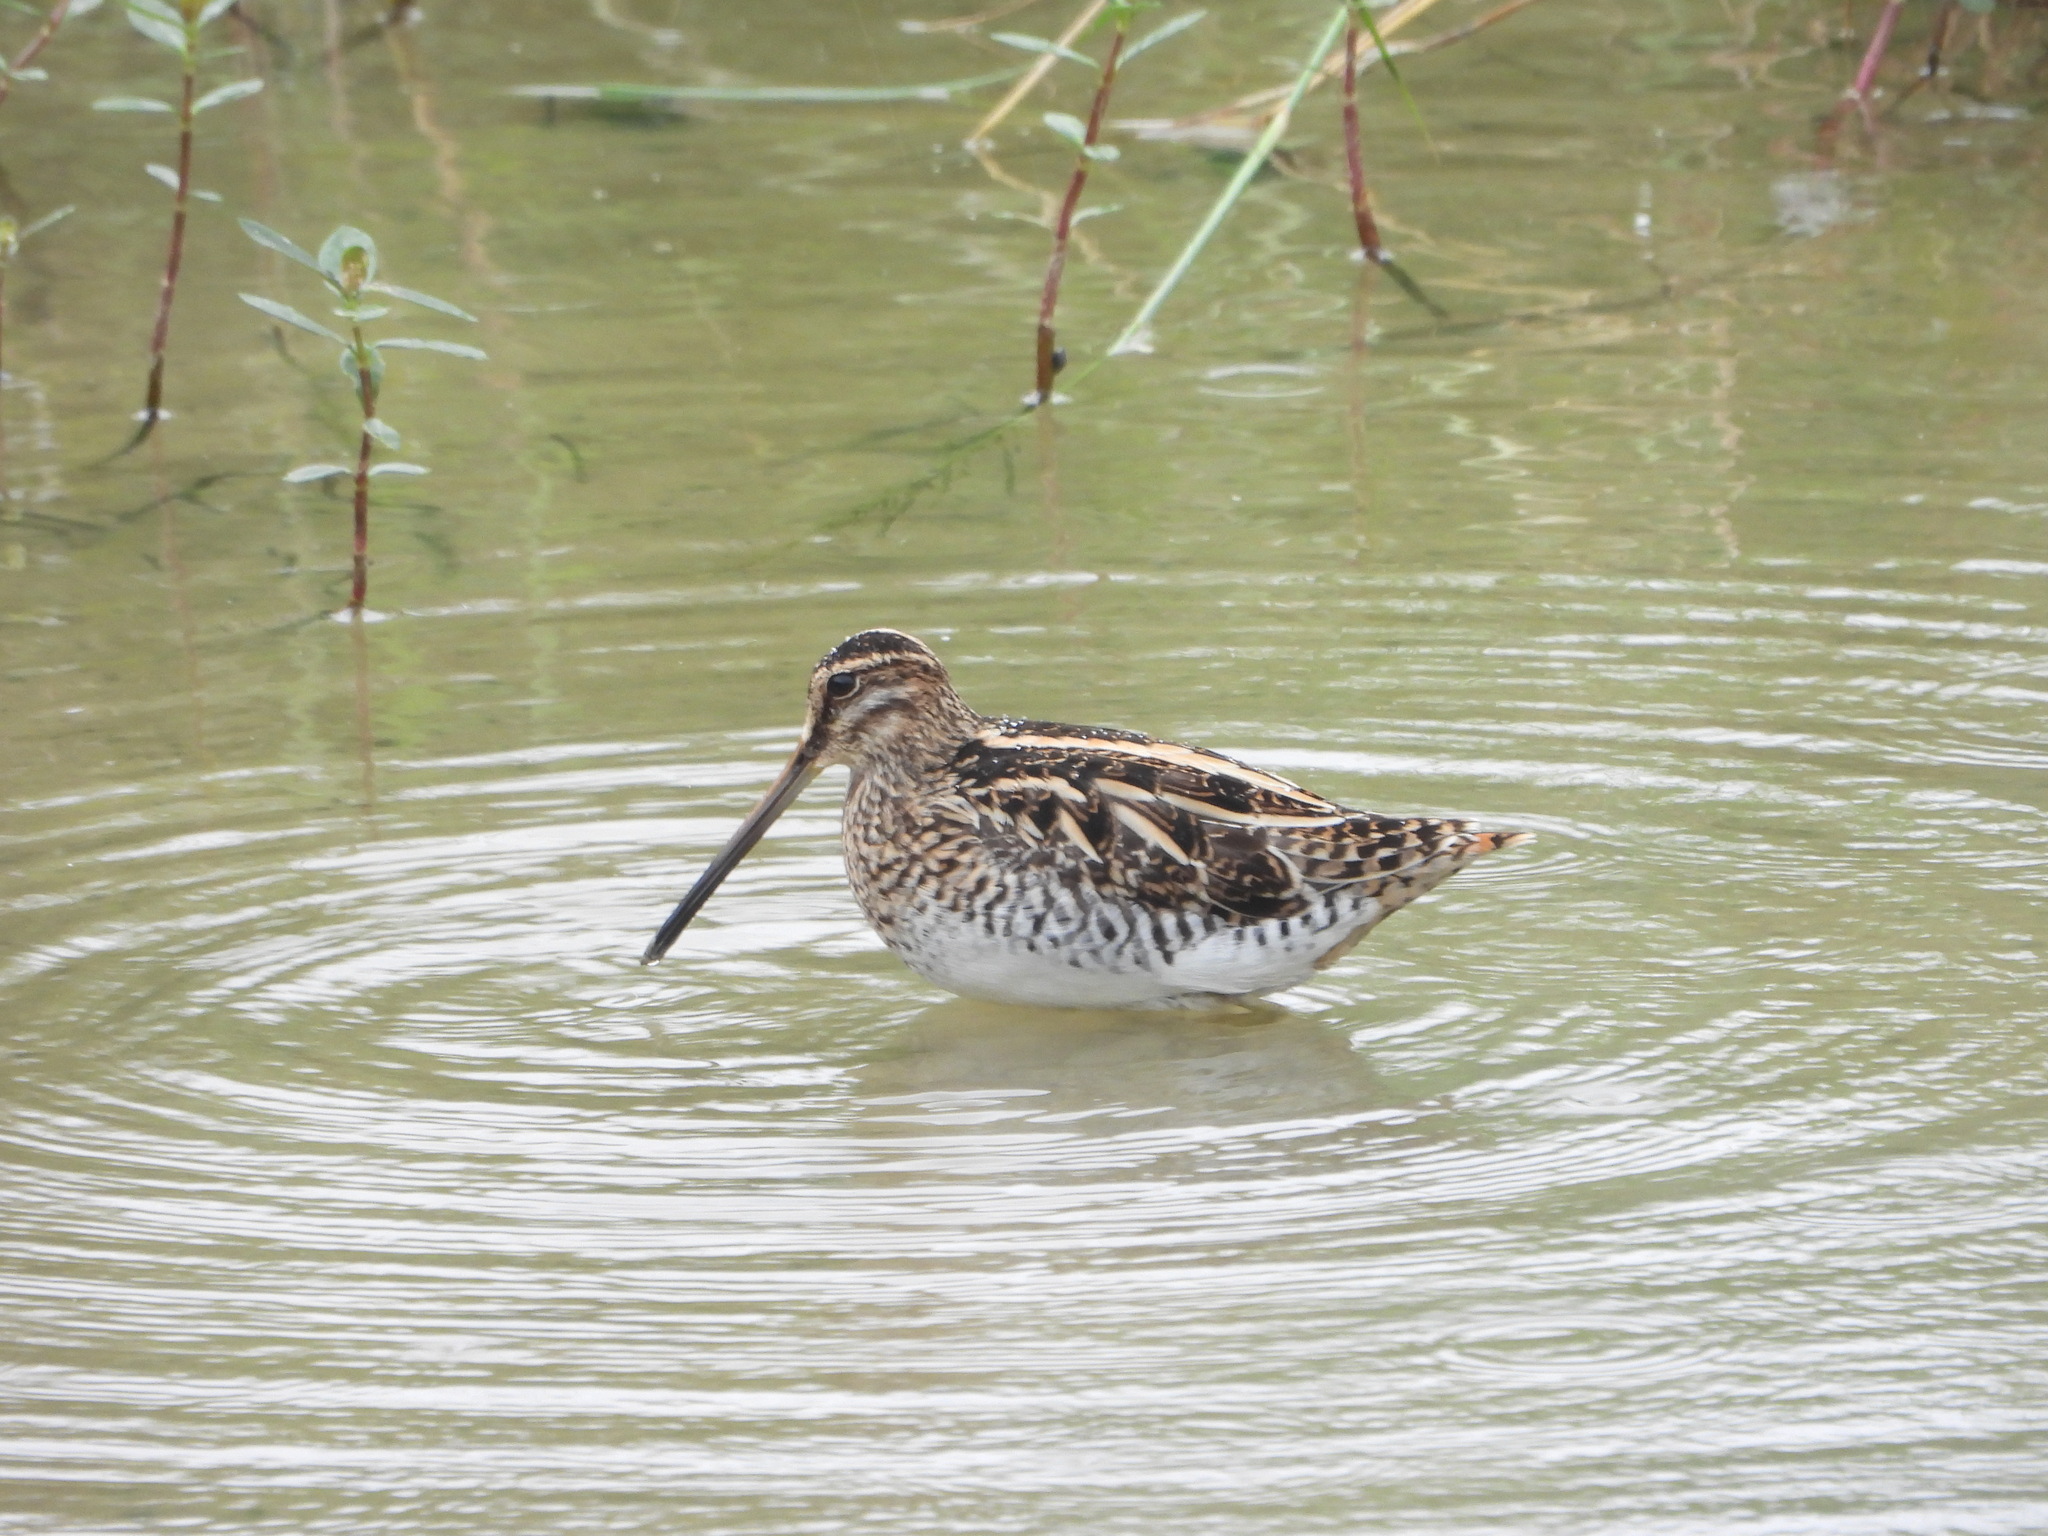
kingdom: Animalia
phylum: Chordata
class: Aves
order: Charadriiformes
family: Scolopacidae
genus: Gallinago
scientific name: Gallinago gallinago
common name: Common snipe
